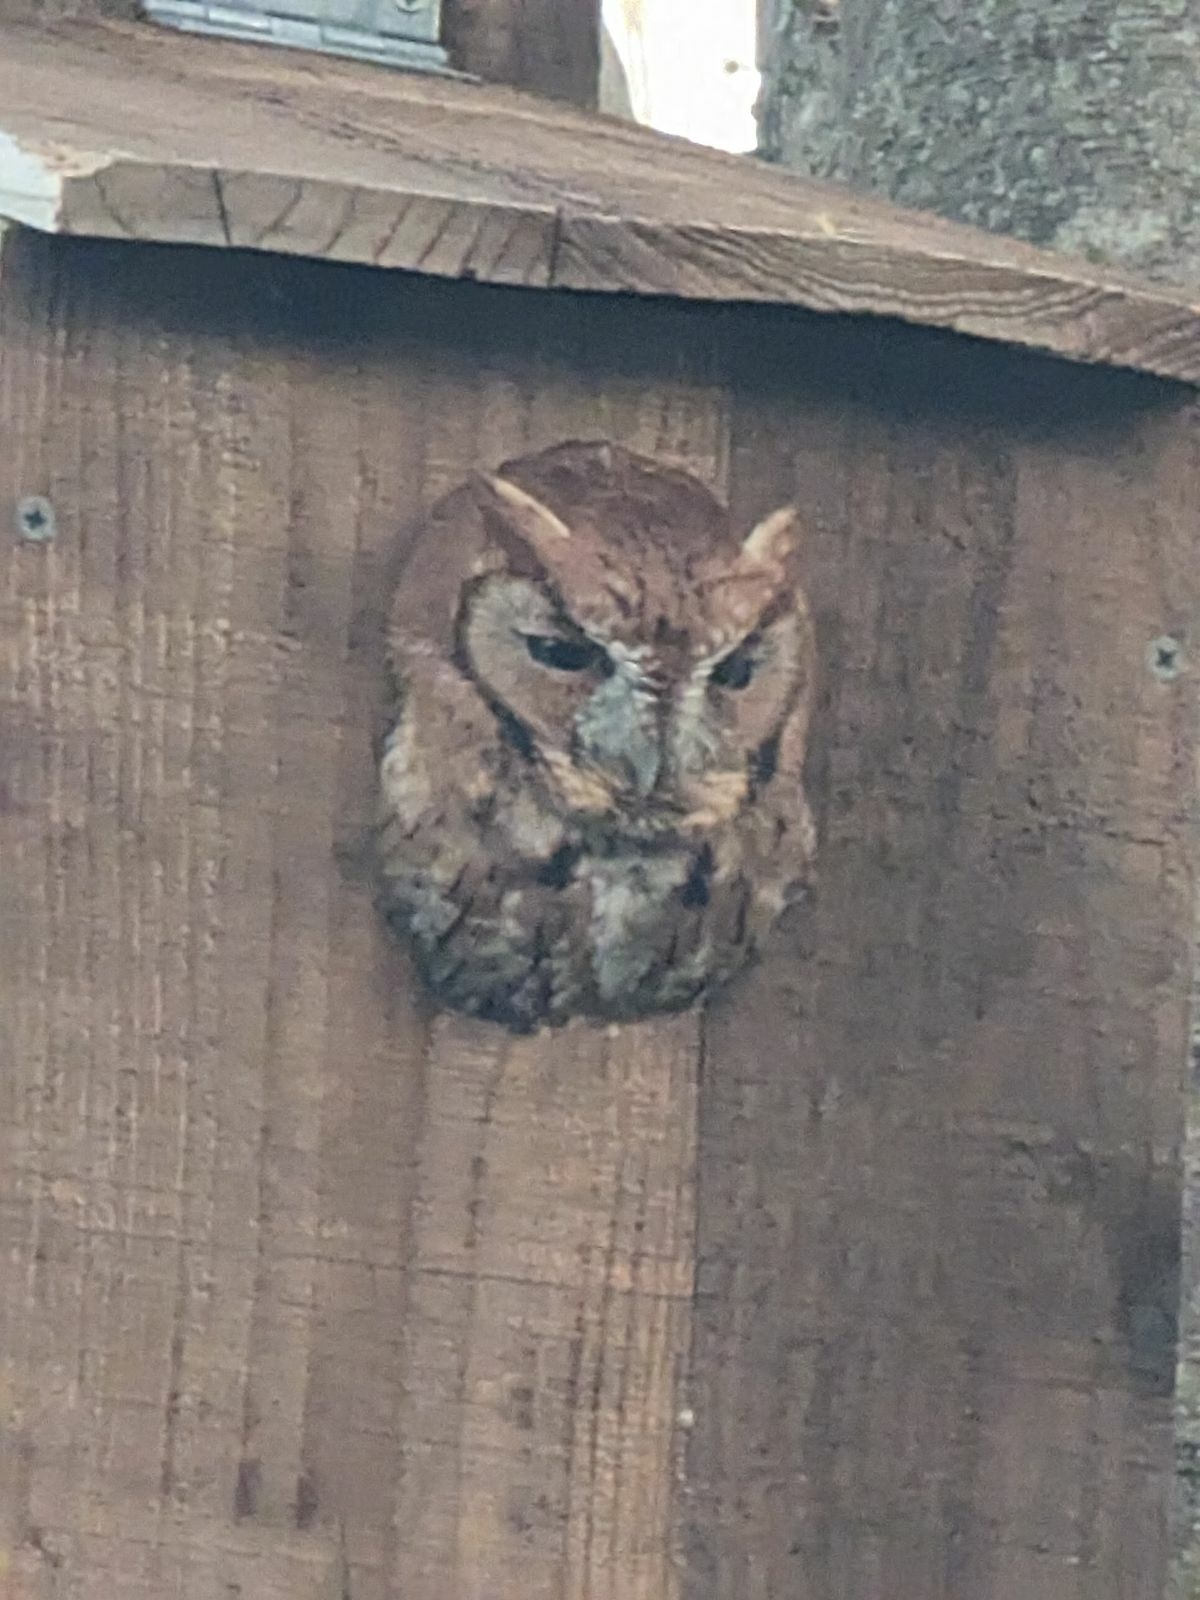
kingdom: Animalia
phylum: Chordata
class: Aves
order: Strigiformes
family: Strigidae
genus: Megascops
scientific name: Megascops asio
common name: Eastern screech-owl
